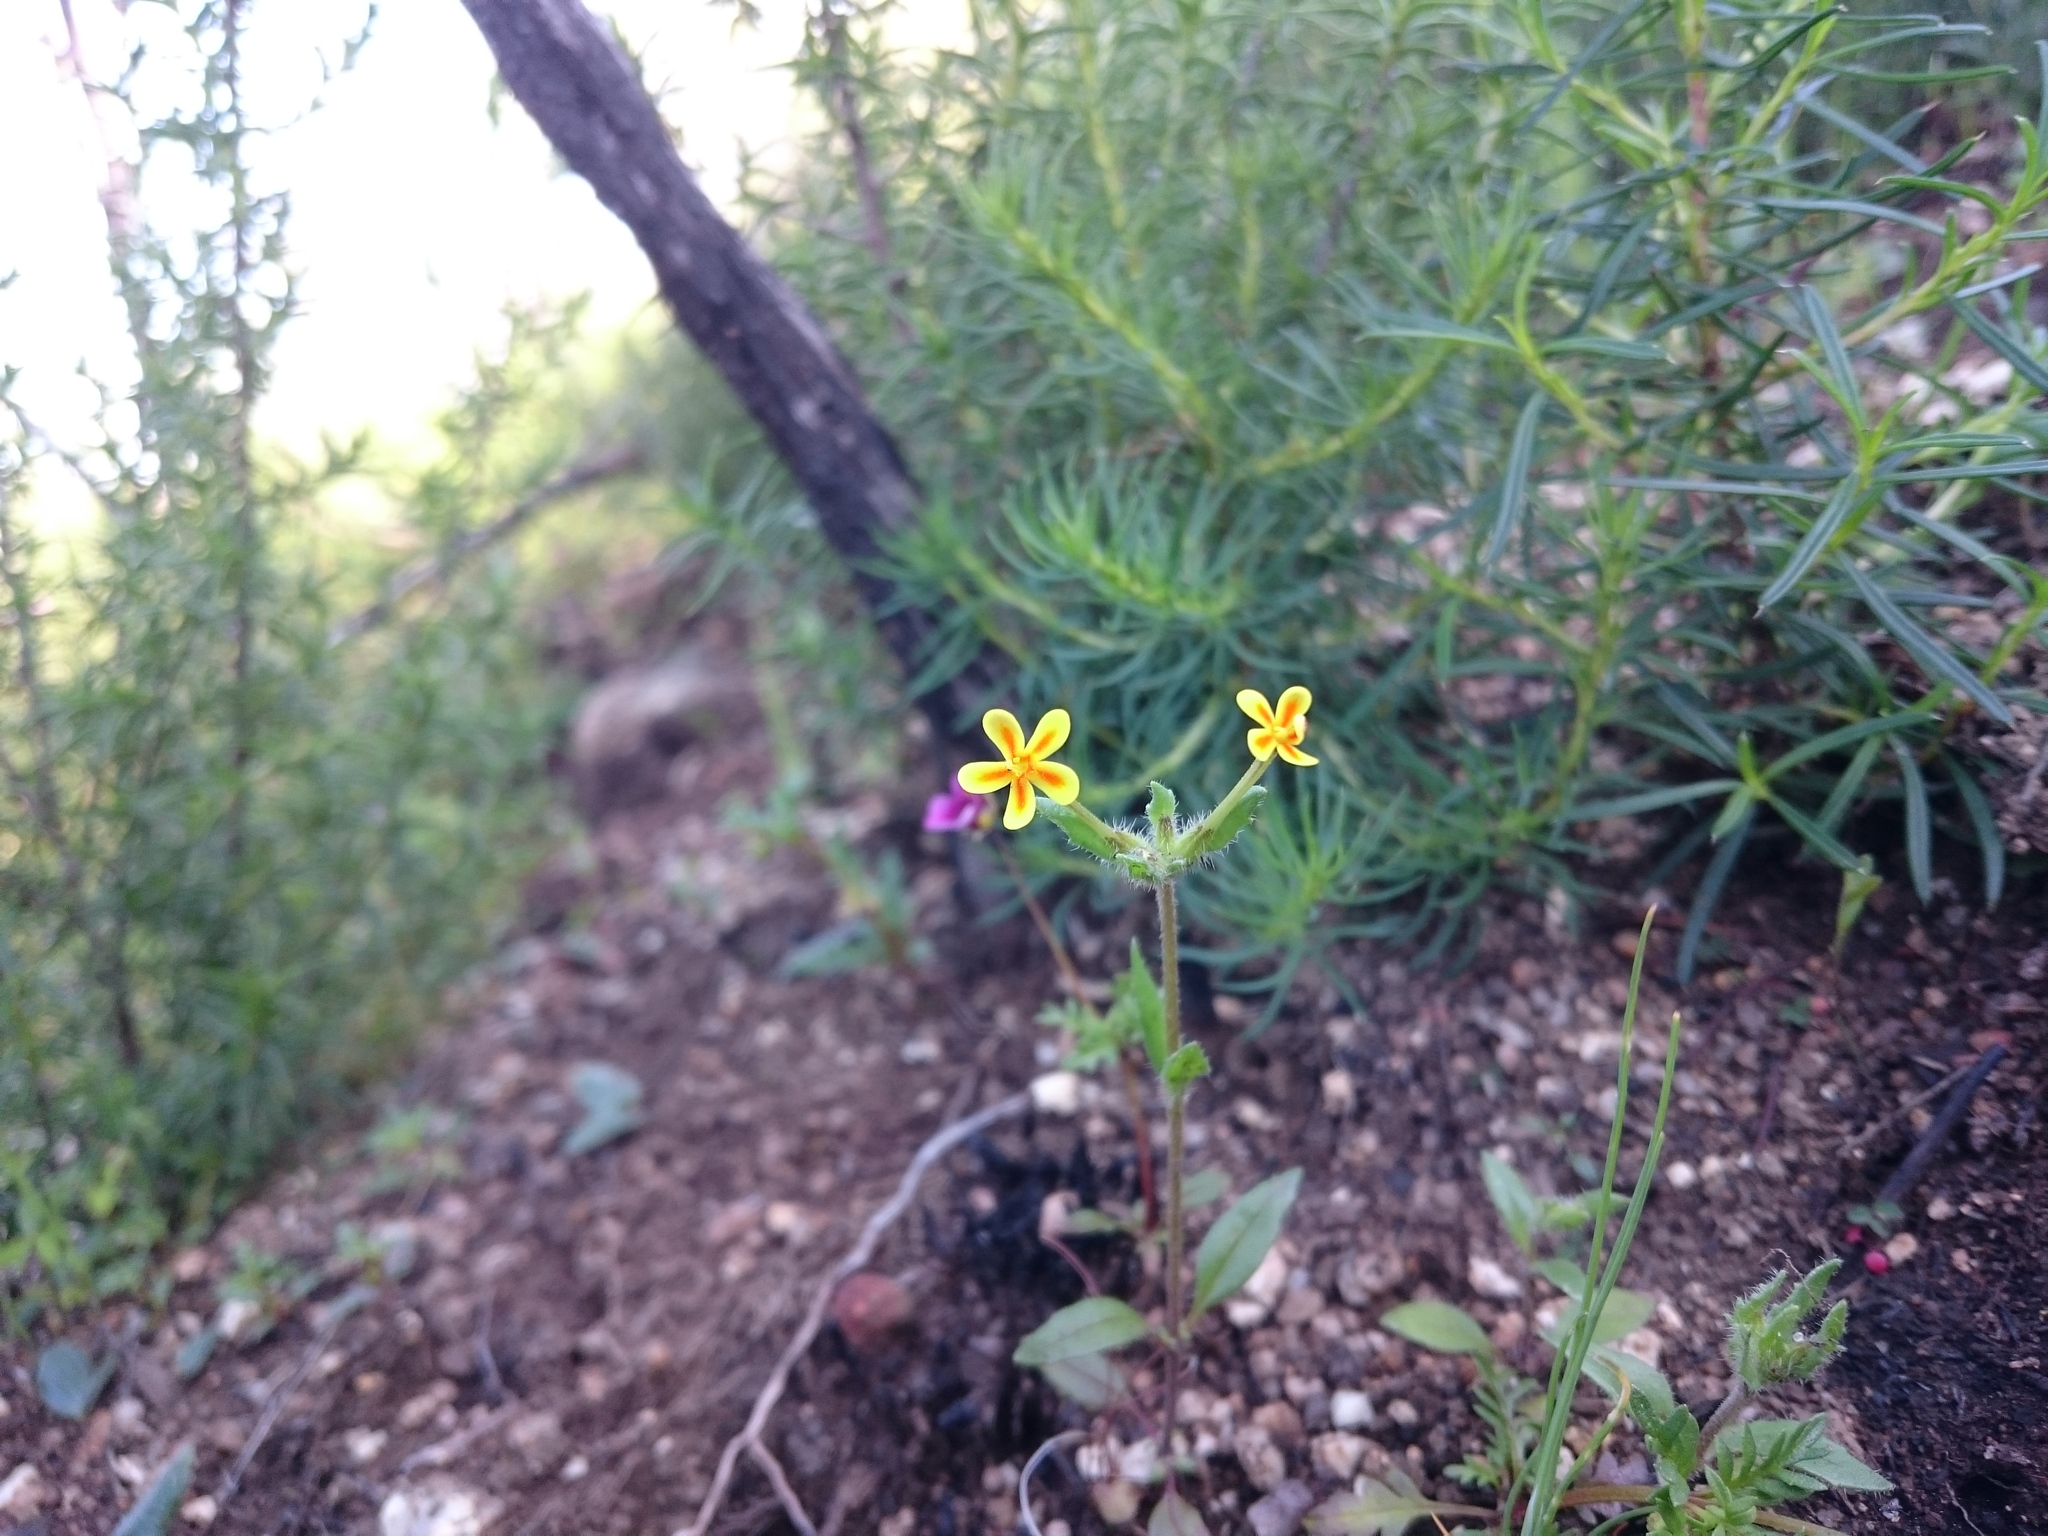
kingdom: Plantae
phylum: Tracheophyta
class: Magnoliopsida
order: Lamiales
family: Scrophulariaceae
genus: Zaluzianskya
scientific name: Zaluzianskya divaricata
